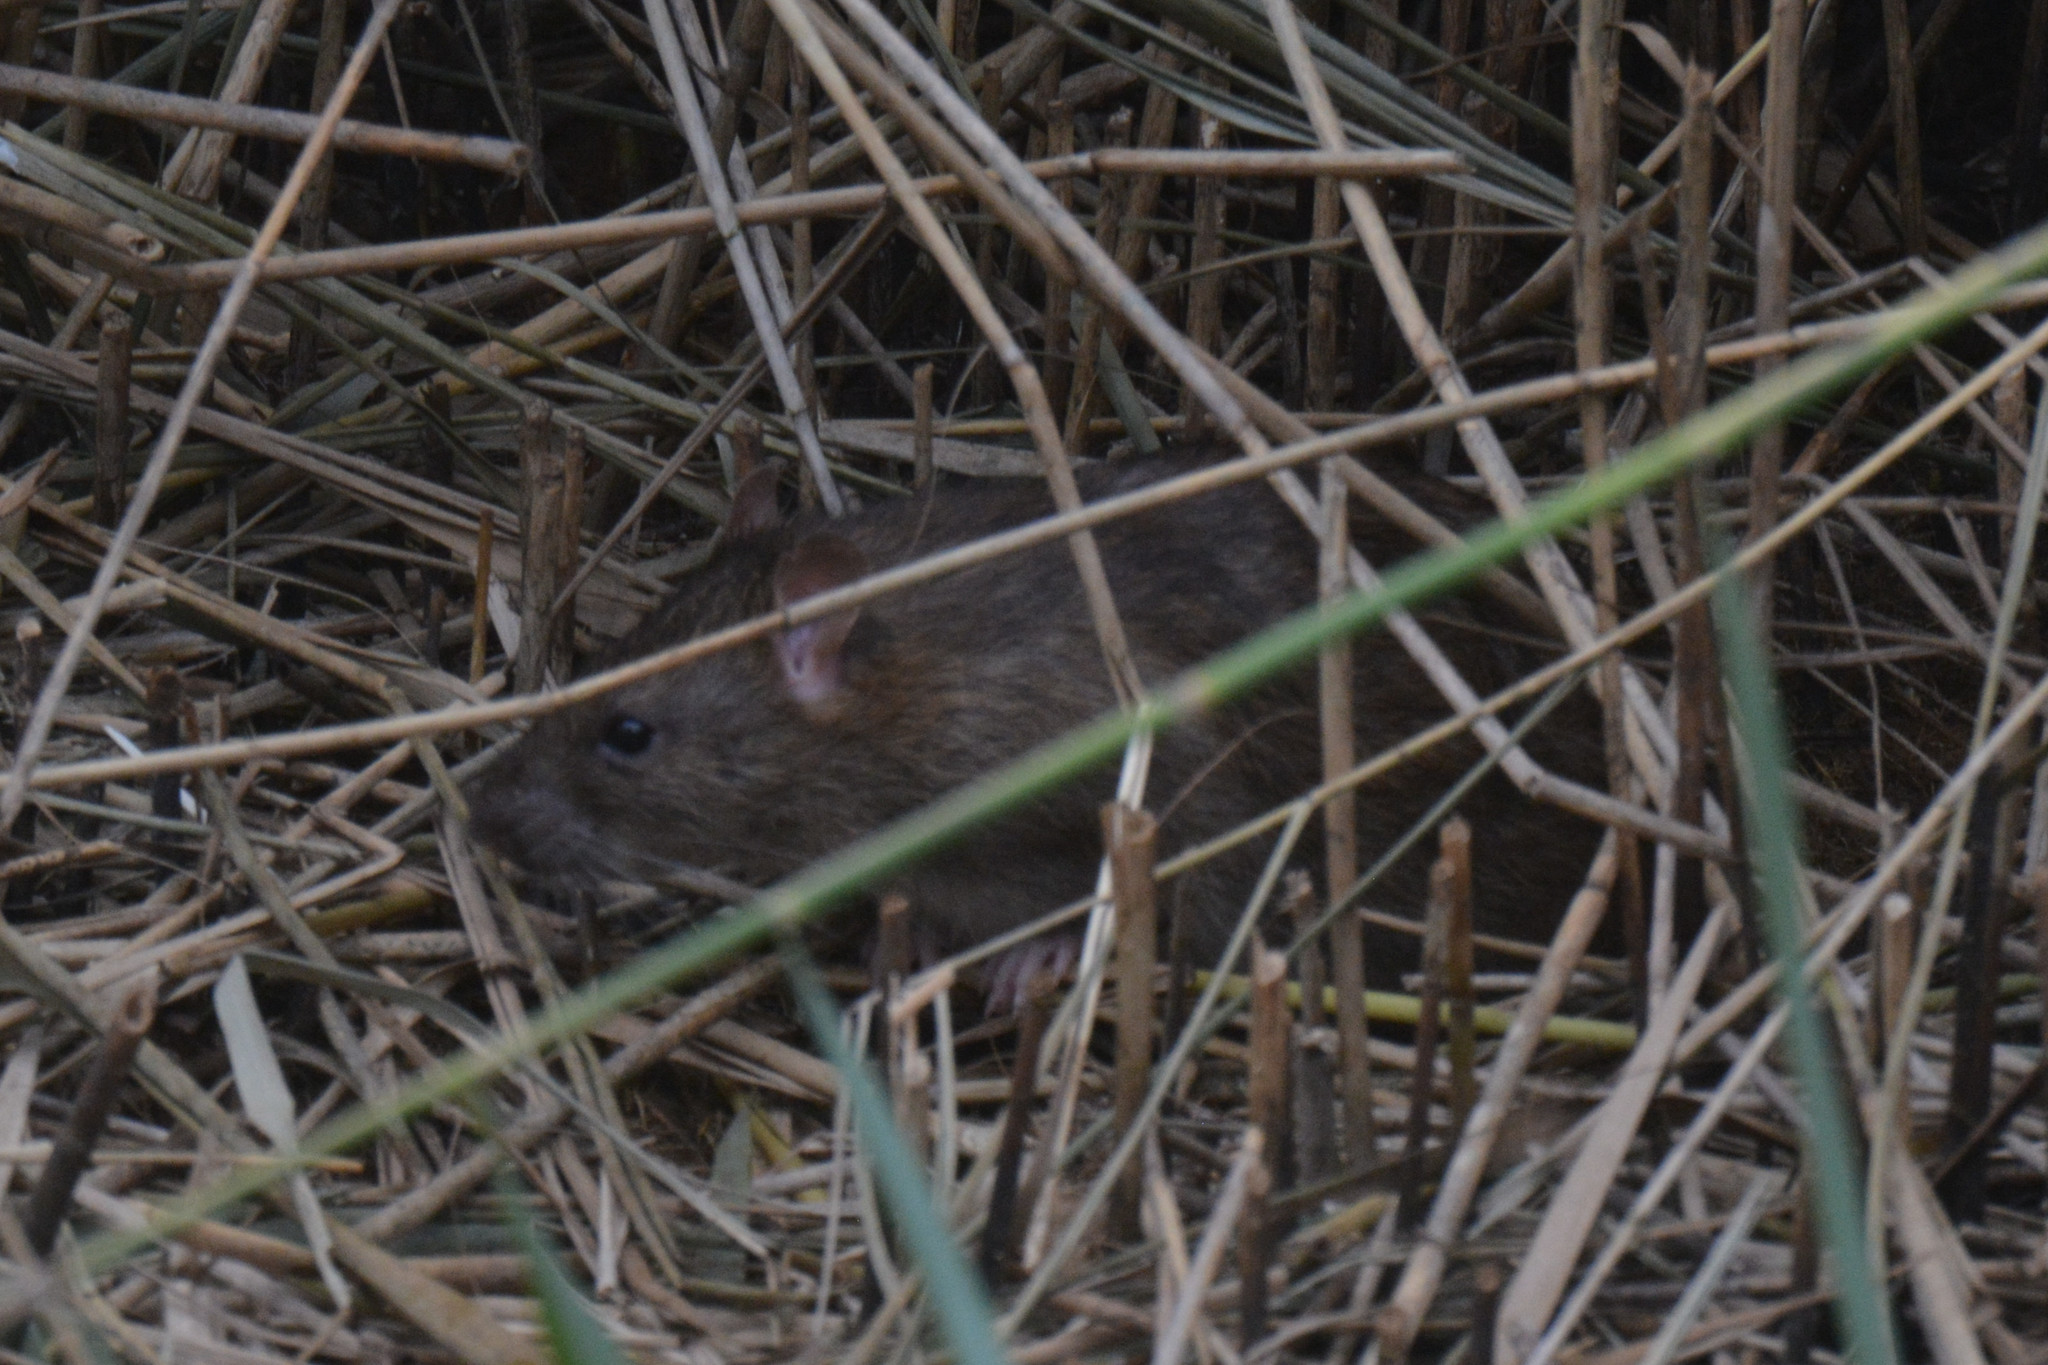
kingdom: Animalia
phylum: Chordata
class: Mammalia
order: Rodentia
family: Muridae
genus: Rattus
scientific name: Rattus norvegicus
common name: Brown rat
